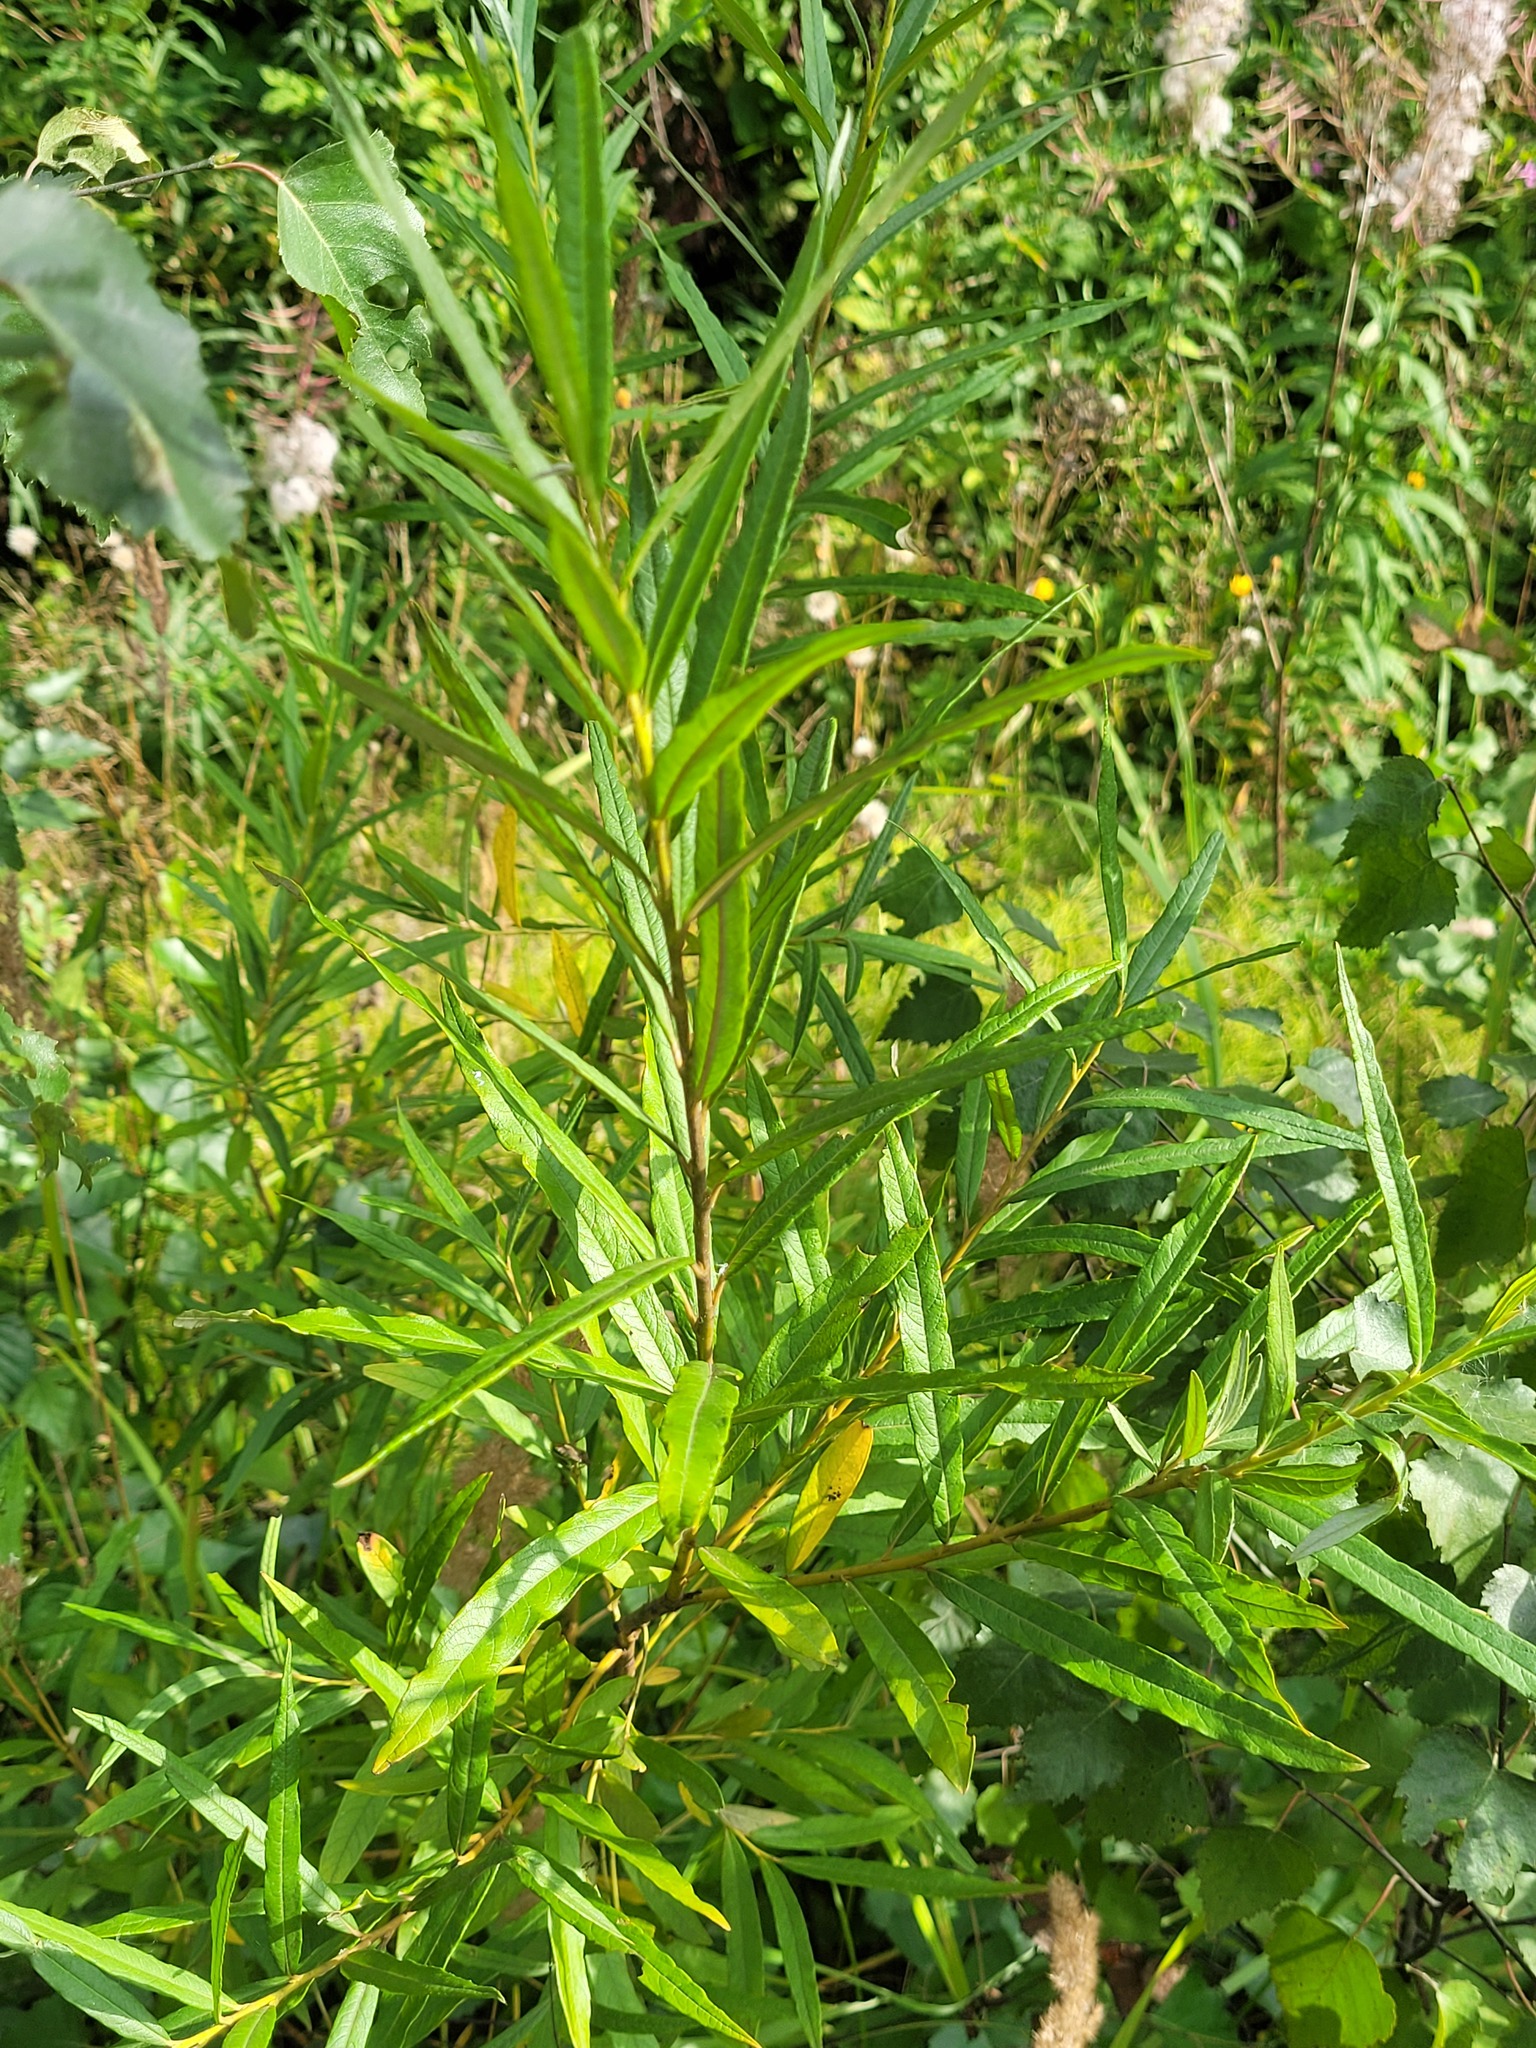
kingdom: Plantae
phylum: Tracheophyta
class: Magnoliopsida
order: Malpighiales
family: Salicaceae
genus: Salix
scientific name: Salix viminalis
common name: Osier
